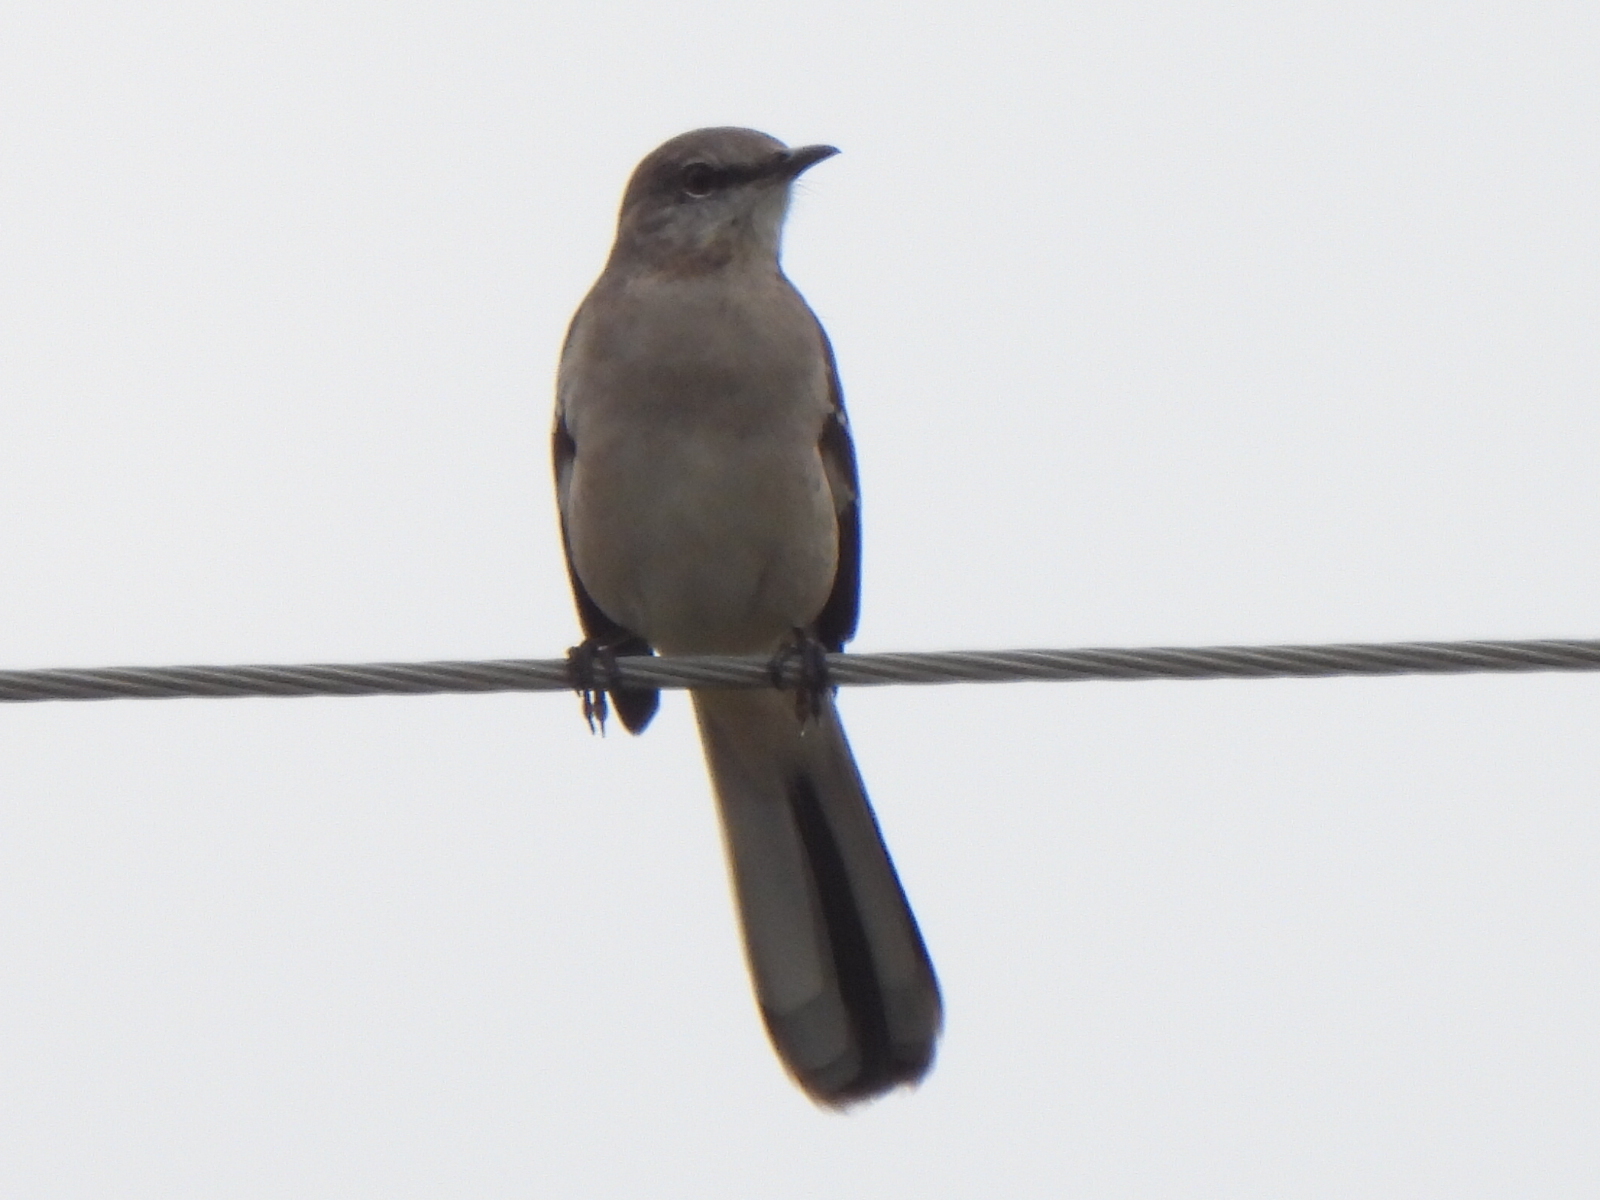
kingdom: Animalia
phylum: Chordata
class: Aves
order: Passeriformes
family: Mimidae
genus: Mimus
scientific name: Mimus polyglottos
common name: Northern mockingbird
